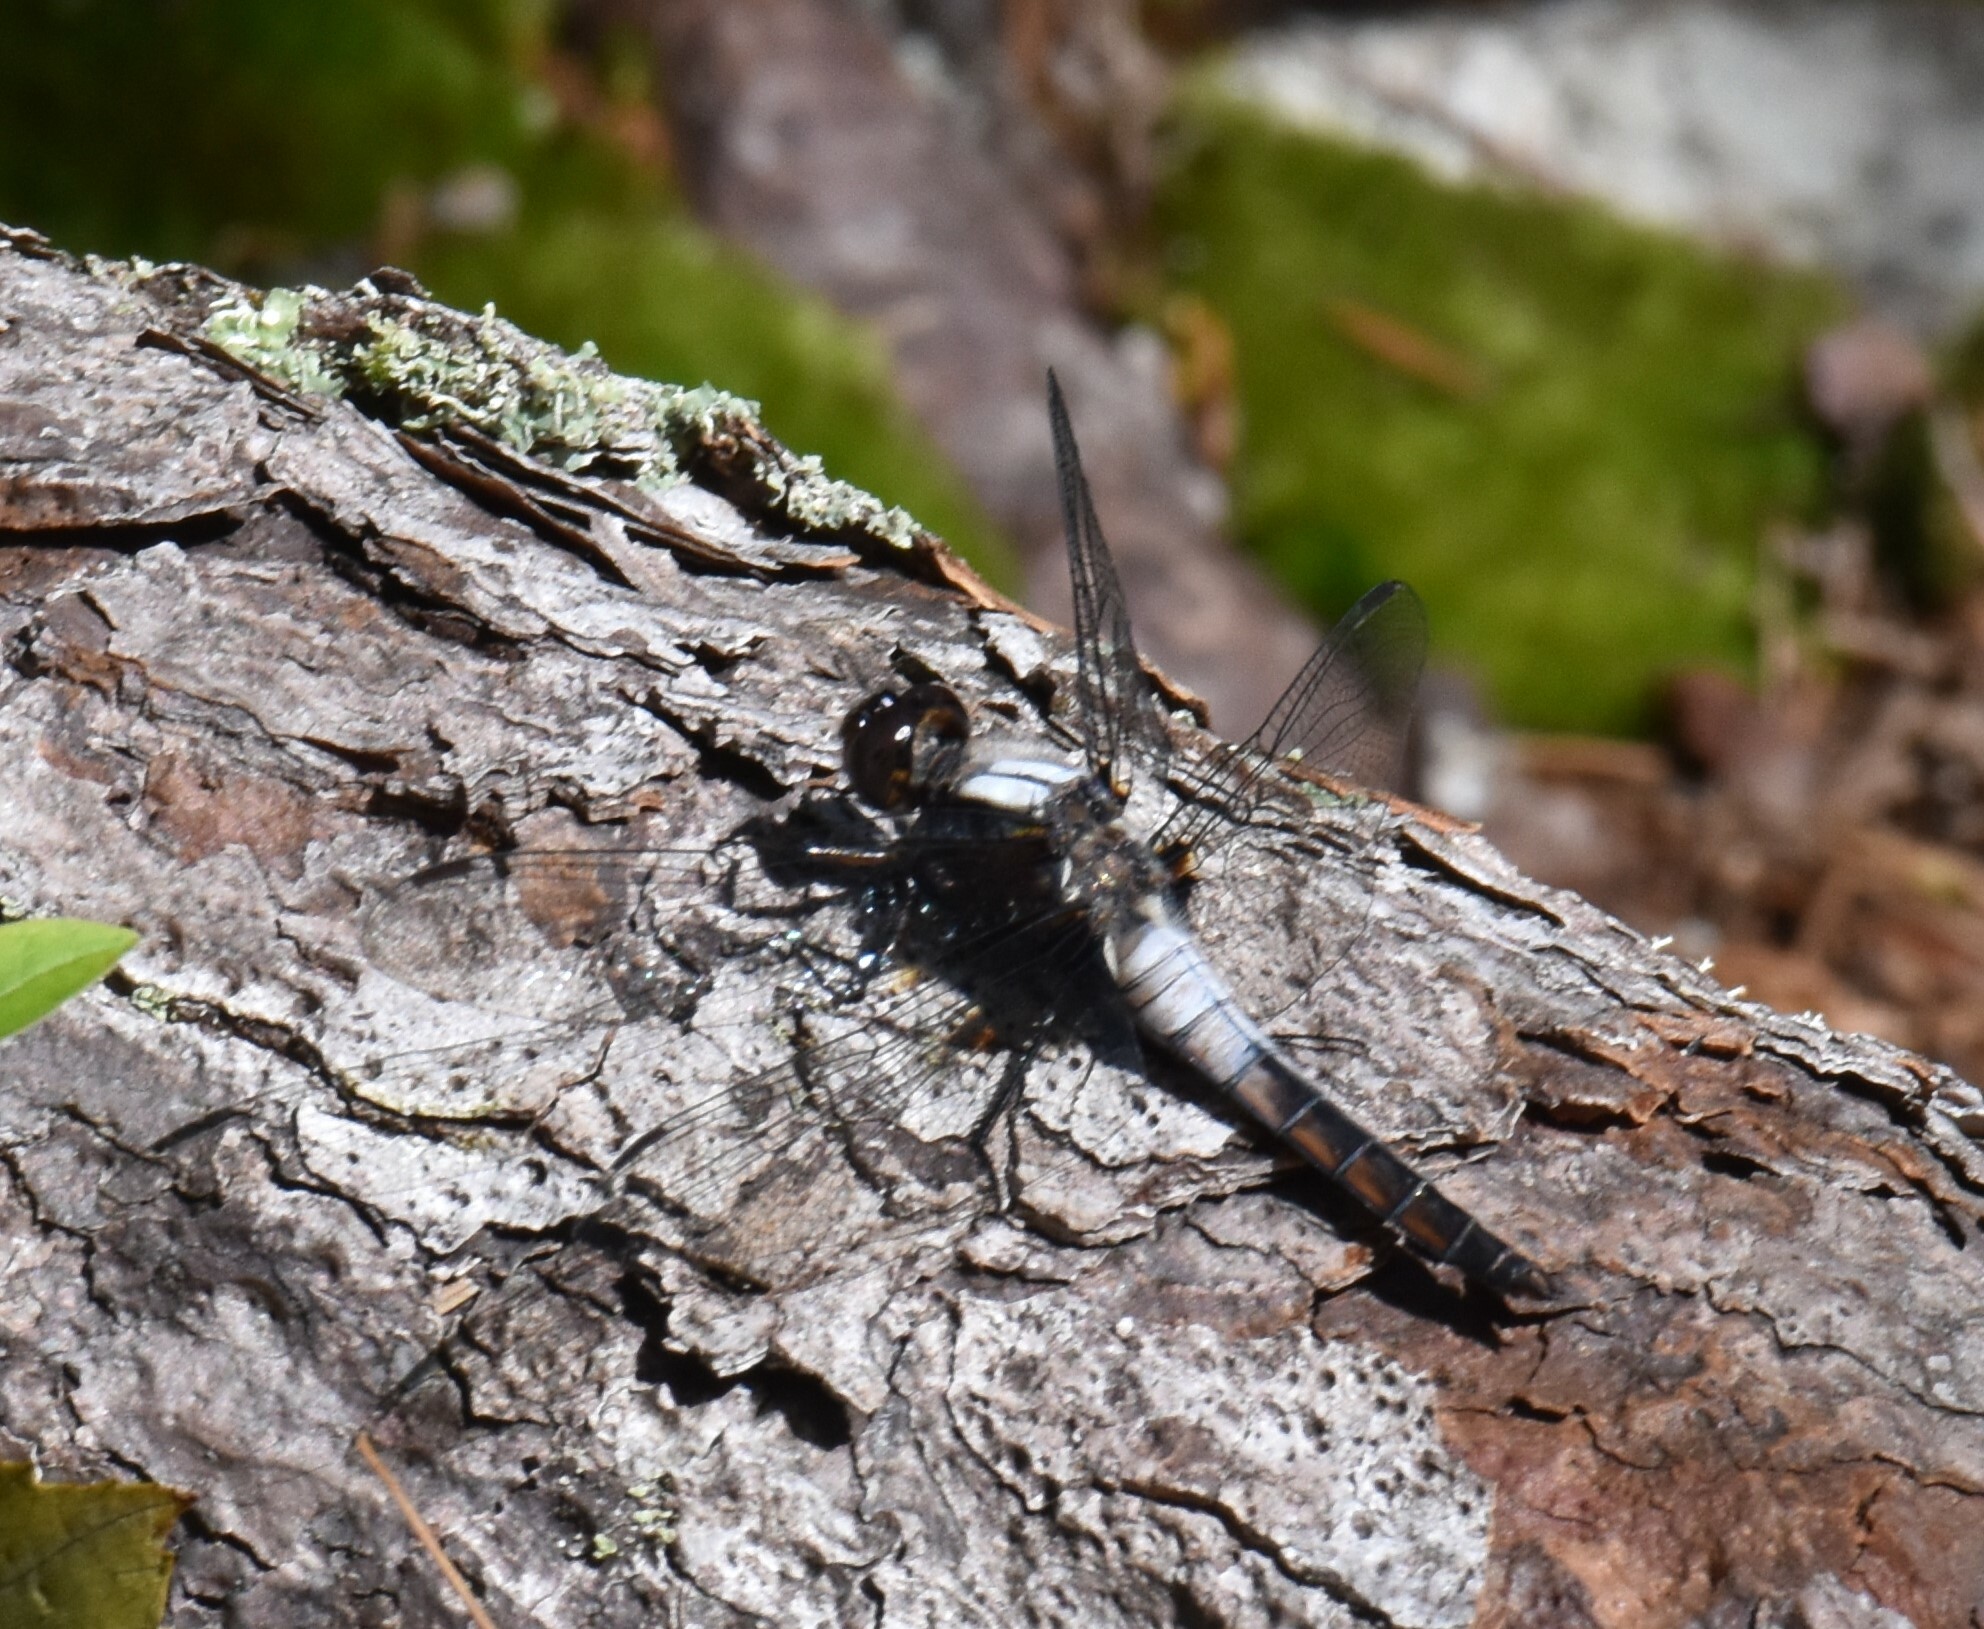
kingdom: Animalia
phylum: Arthropoda
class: Insecta
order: Odonata
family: Libellulidae
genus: Ladona
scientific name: Ladona julia
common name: Chalk-fronted corporal
